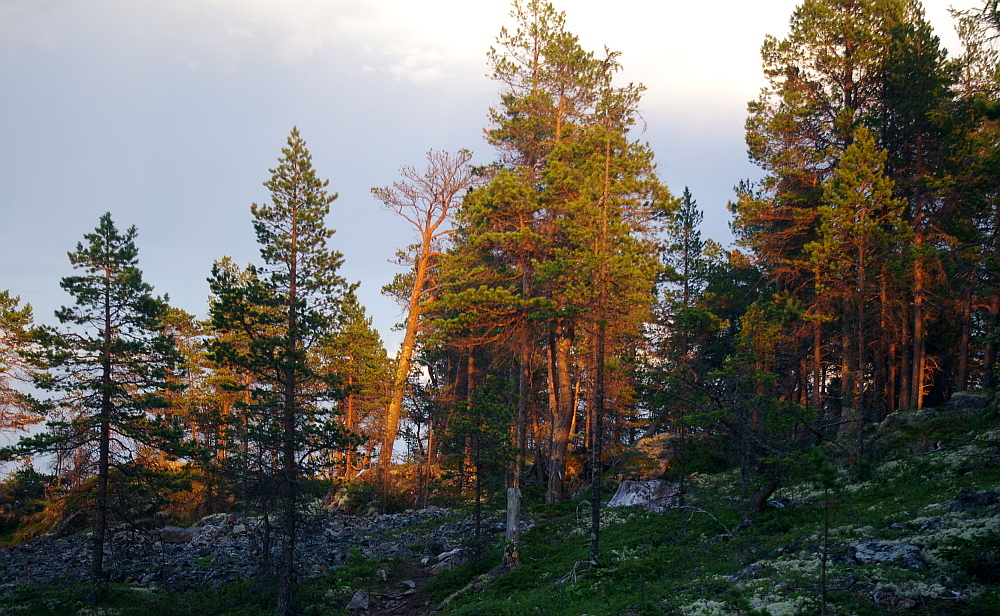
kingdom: Plantae
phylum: Tracheophyta
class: Pinopsida
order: Pinales
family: Pinaceae
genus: Pinus
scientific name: Pinus sylvestris
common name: Scots pine
